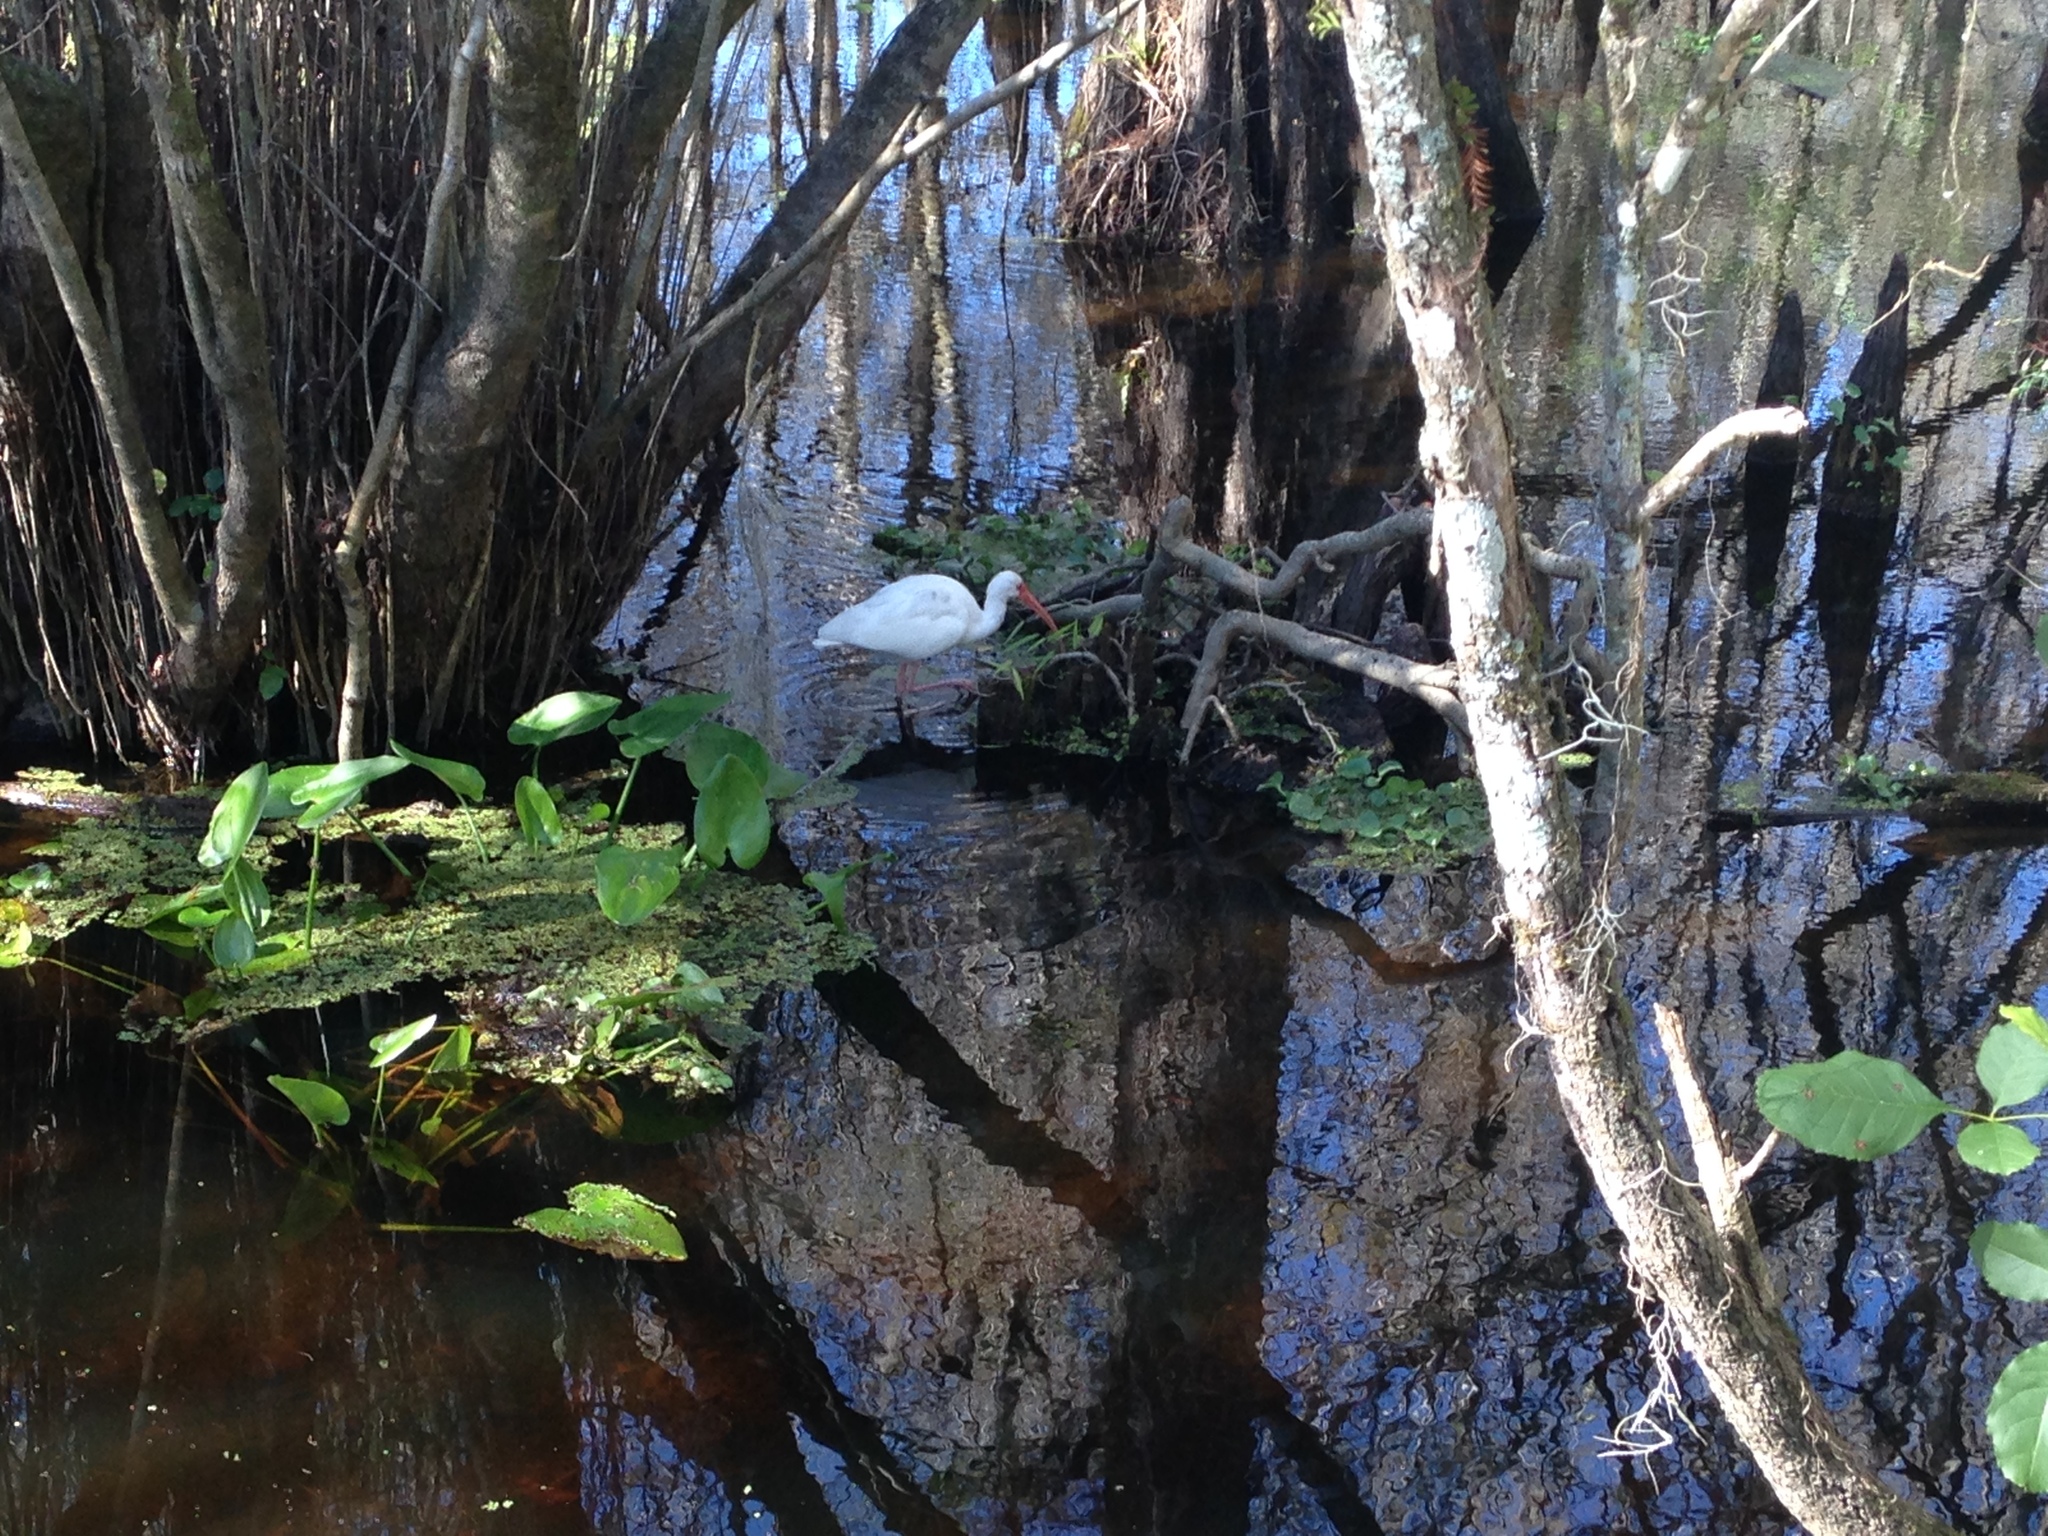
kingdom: Animalia
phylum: Chordata
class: Aves
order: Pelecaniformes
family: Threskiornithidae
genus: Eudocimus
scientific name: Eudocimus albus
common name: White ibis
